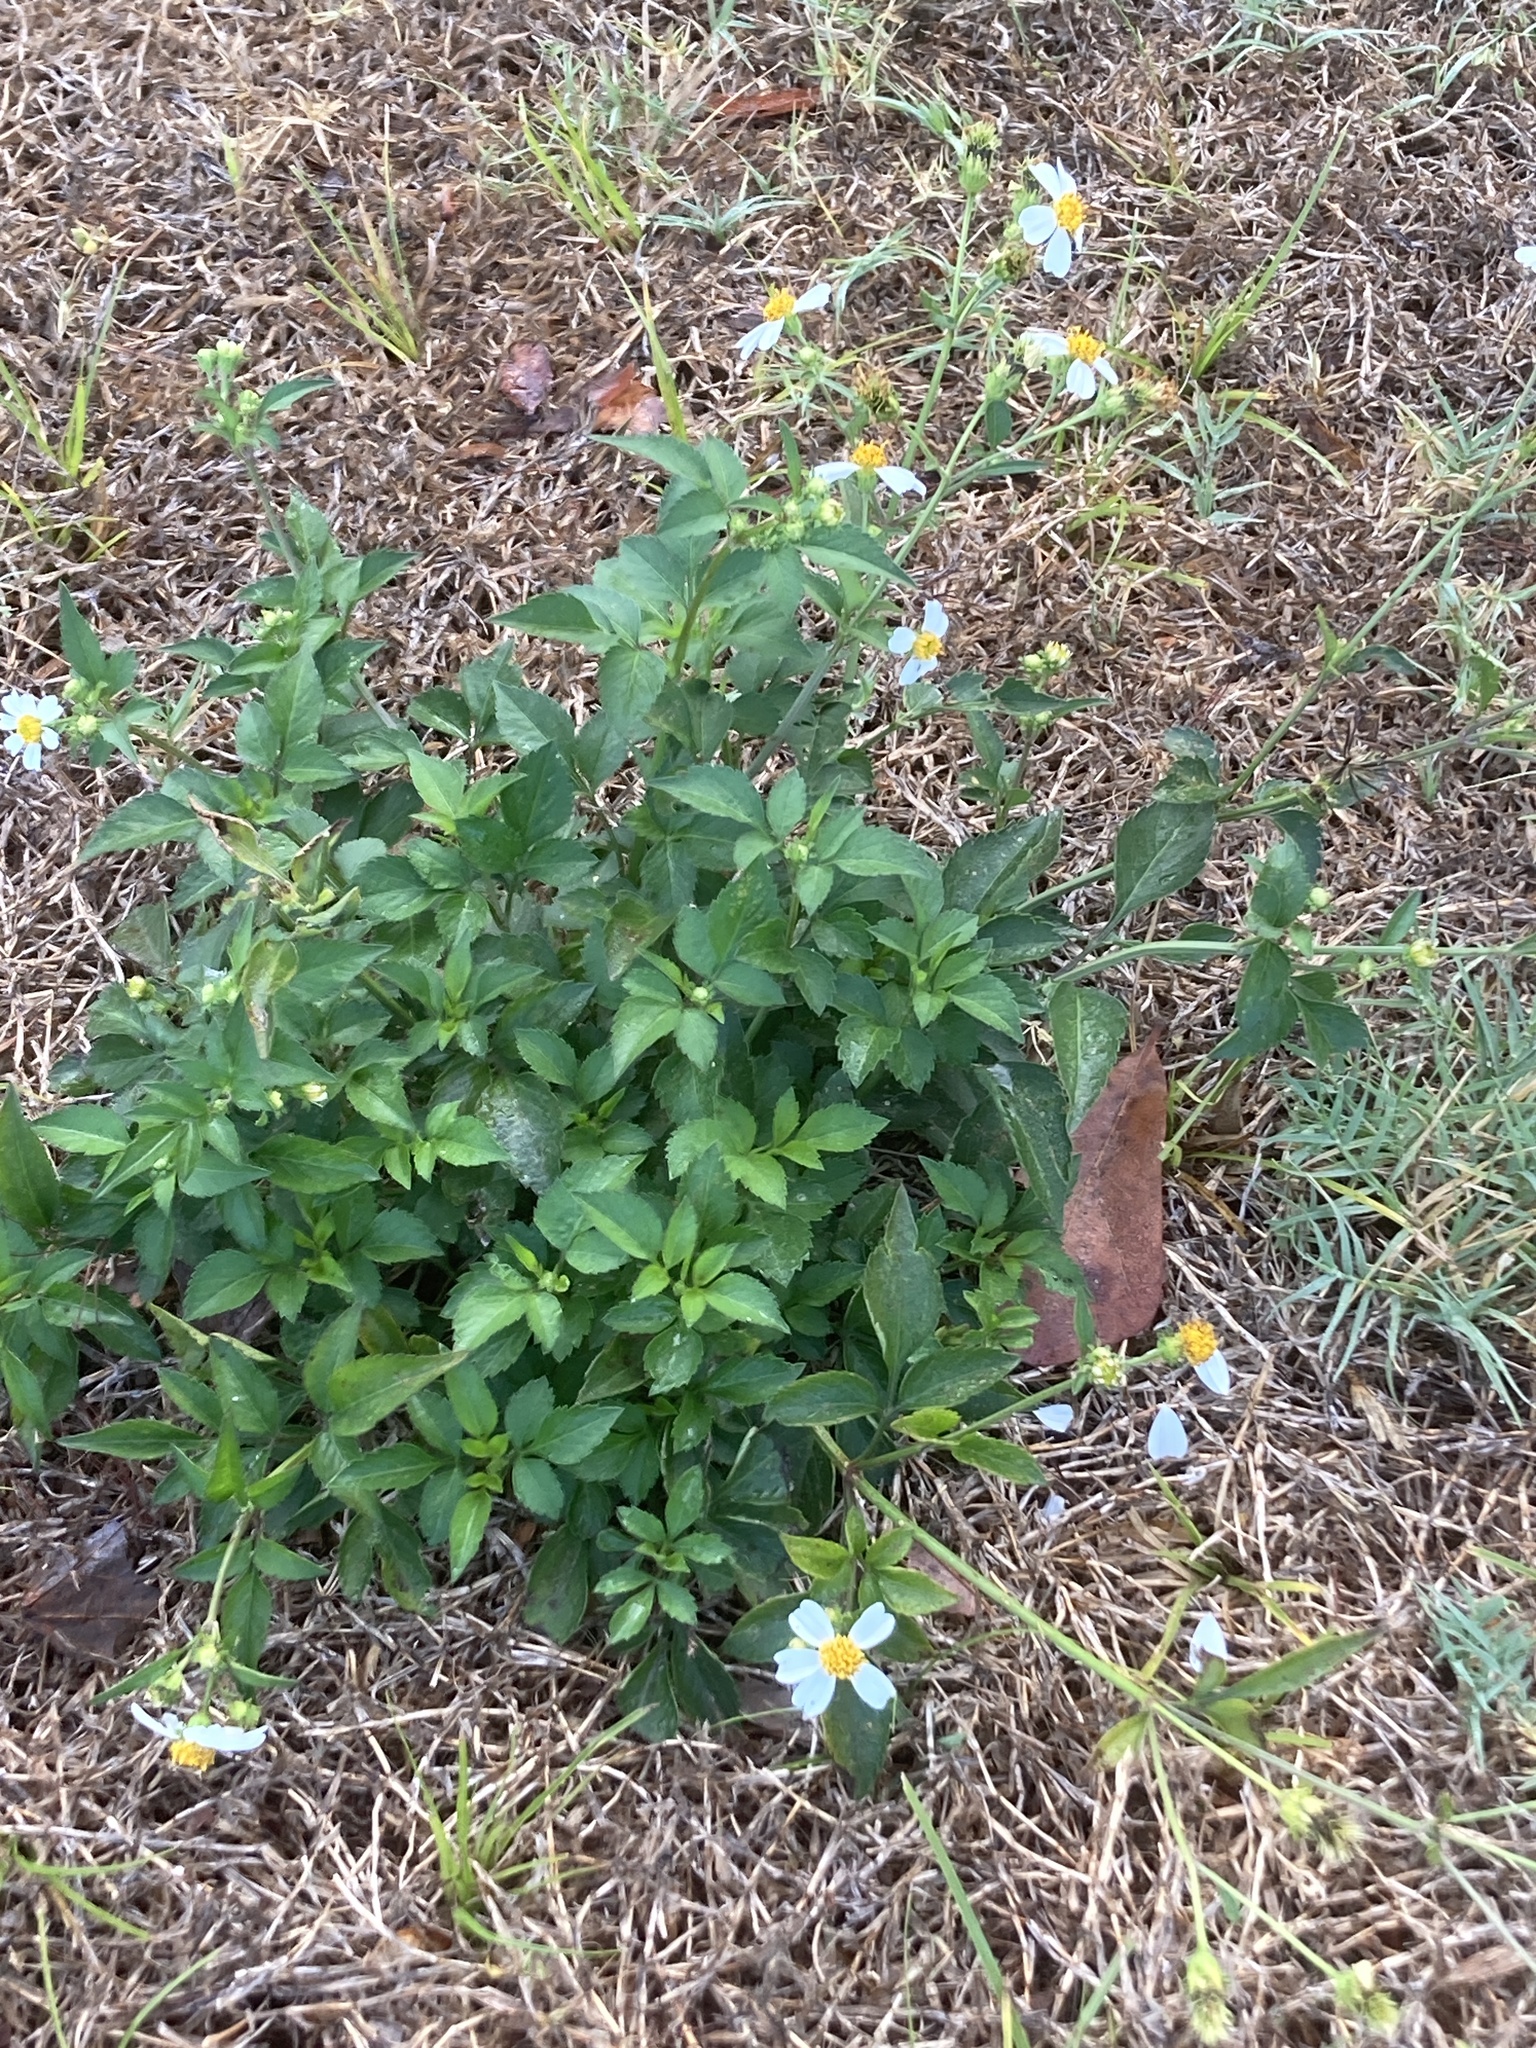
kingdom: Plantae
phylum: Tracheophyta
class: Magnoliopsida
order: Asterales
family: Asteraceae
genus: Bidens
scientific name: Bidens alba
